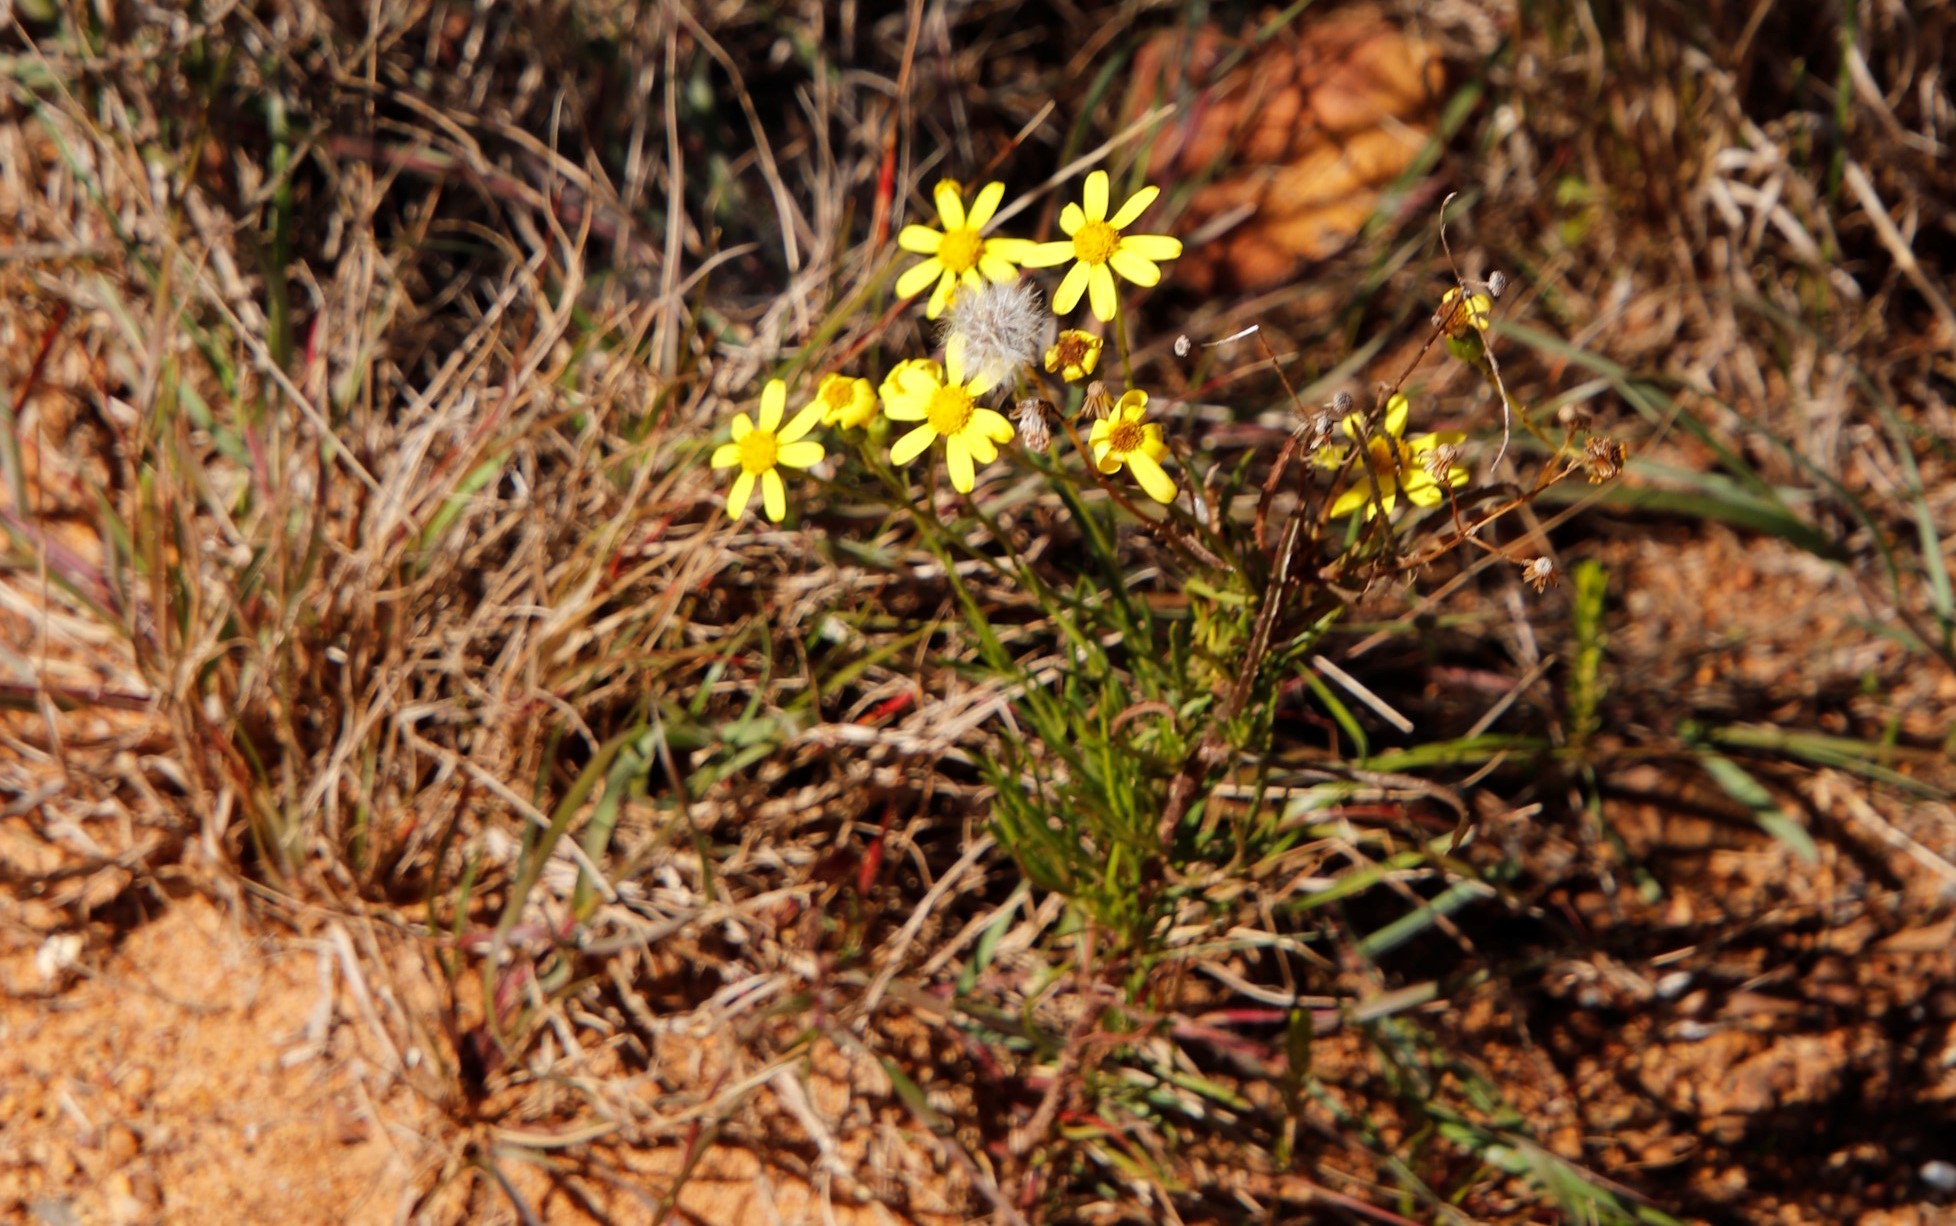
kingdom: Plantae
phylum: Tracheophyta
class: Magnoliopsida
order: Asterales
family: Asteraceae
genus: Senecio
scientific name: Senecio burchellii
